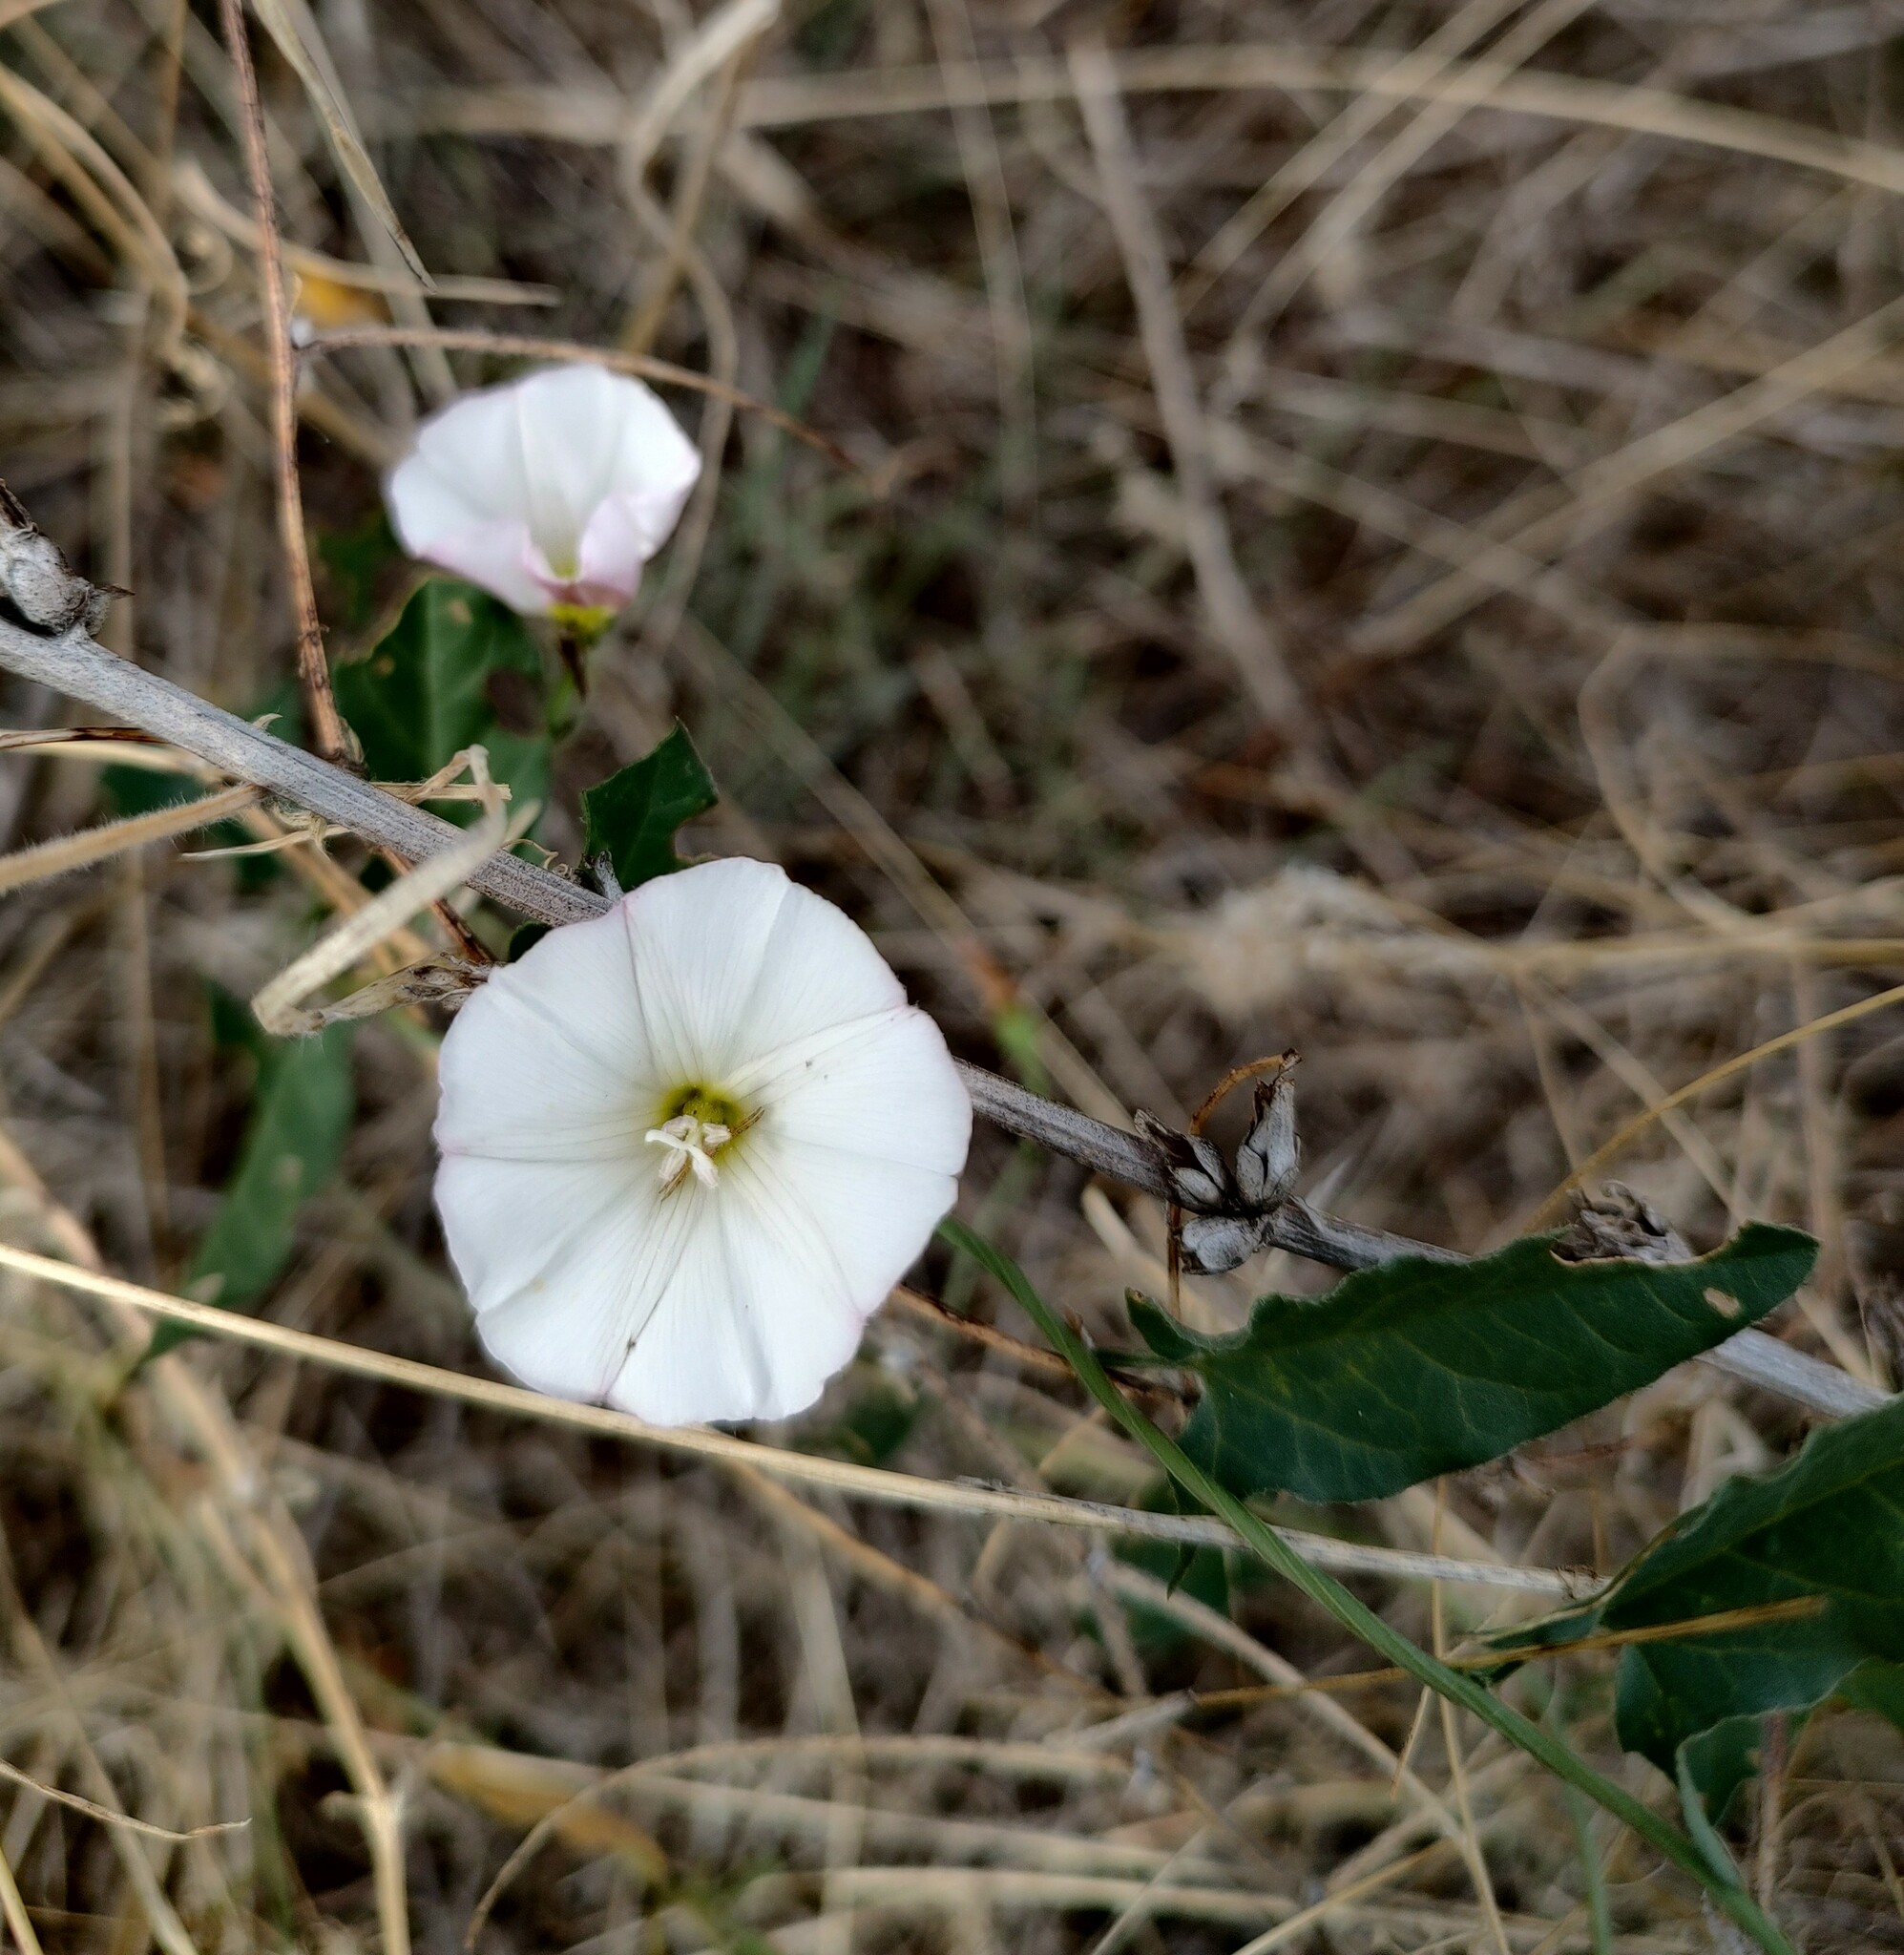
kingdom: Plantae
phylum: Tracheophyta
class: Magnoliopsida
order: Solanales
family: Convolvulaceae
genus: Convolvulus
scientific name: Convolvulus arvensis
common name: Field bindweed
